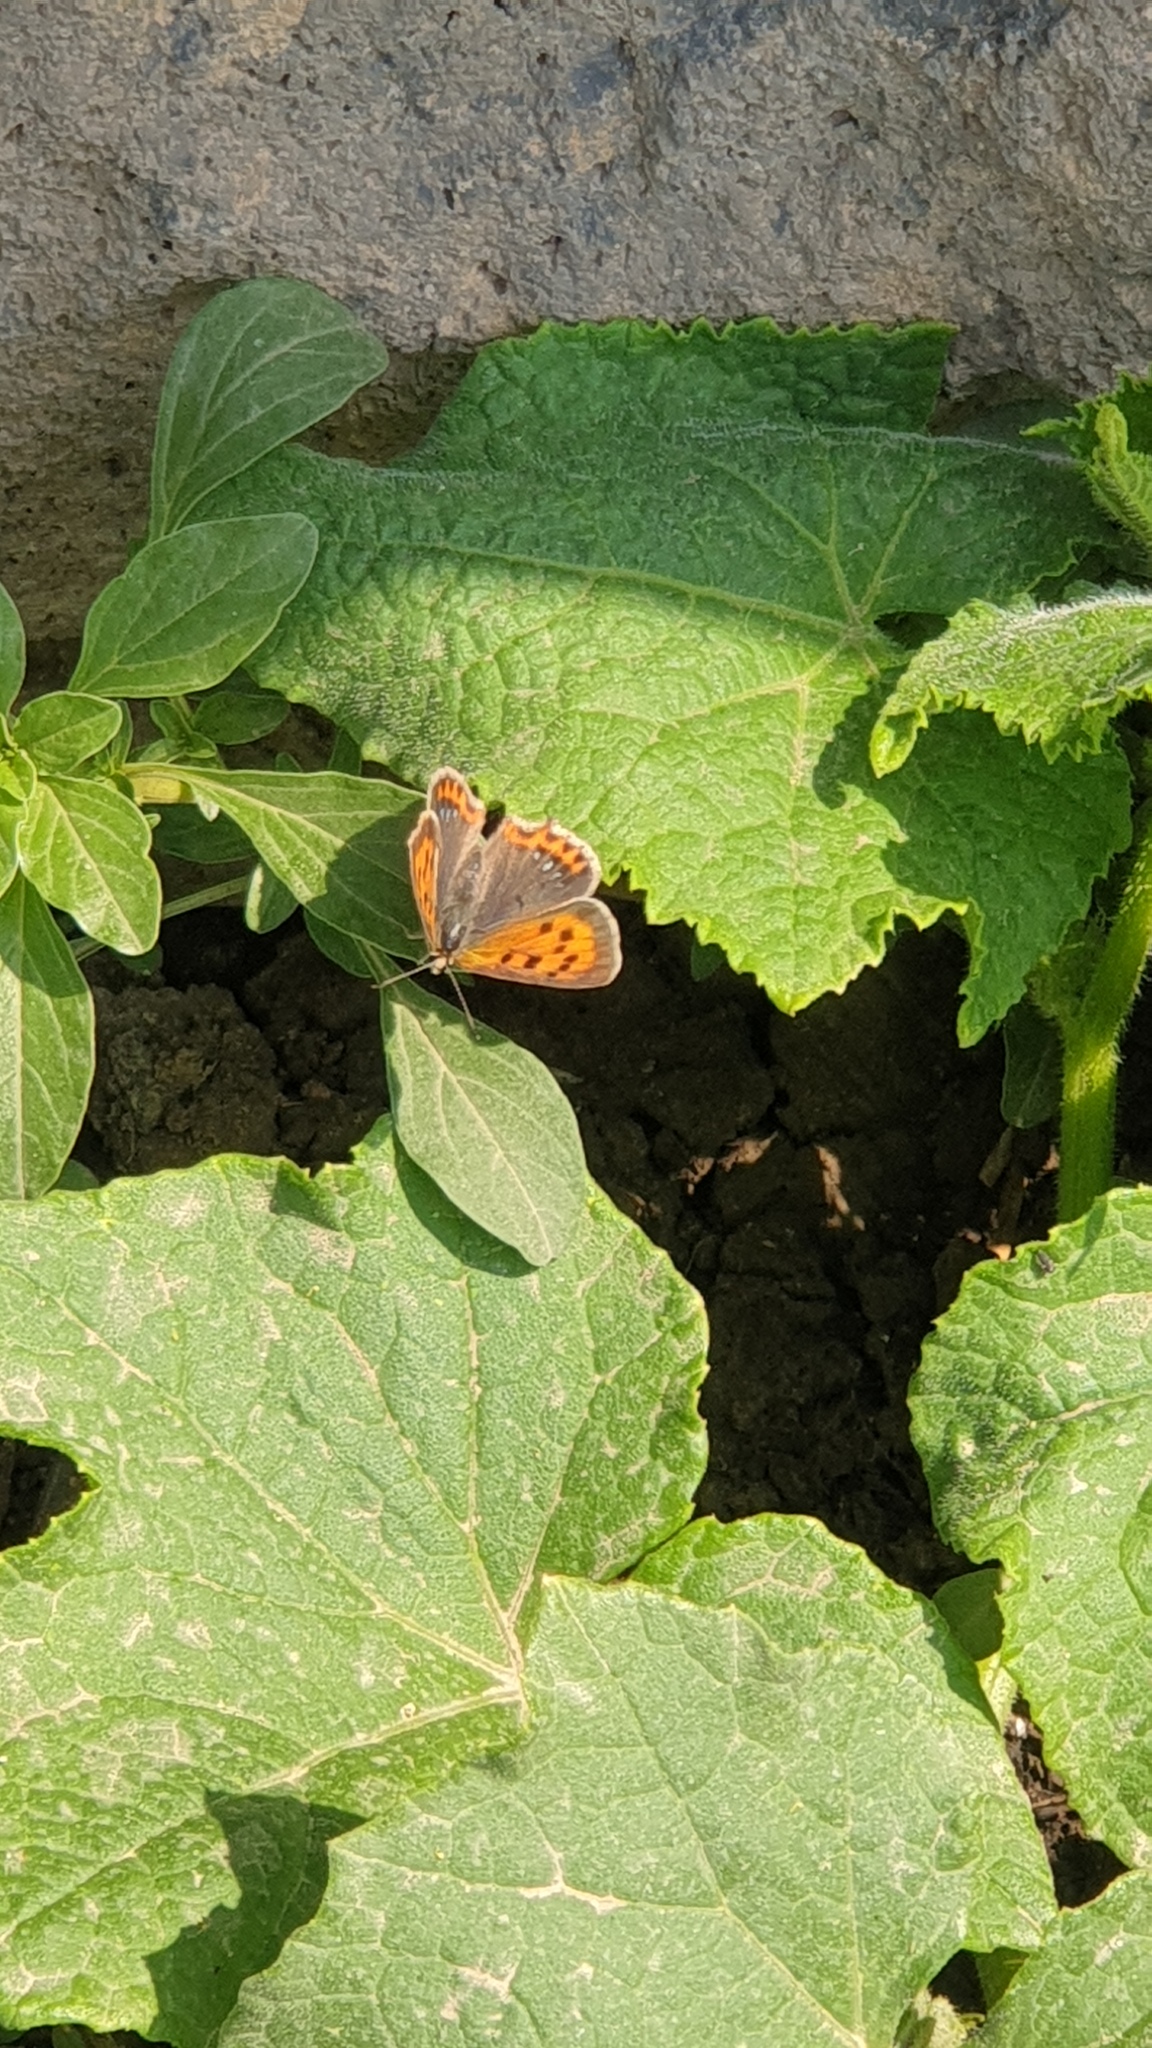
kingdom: Animalia
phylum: Arthropoda
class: Insecta
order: Lepidoptera
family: Lycaenidae
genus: Lycaena
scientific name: Lycaena phlaeas
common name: Small copper
